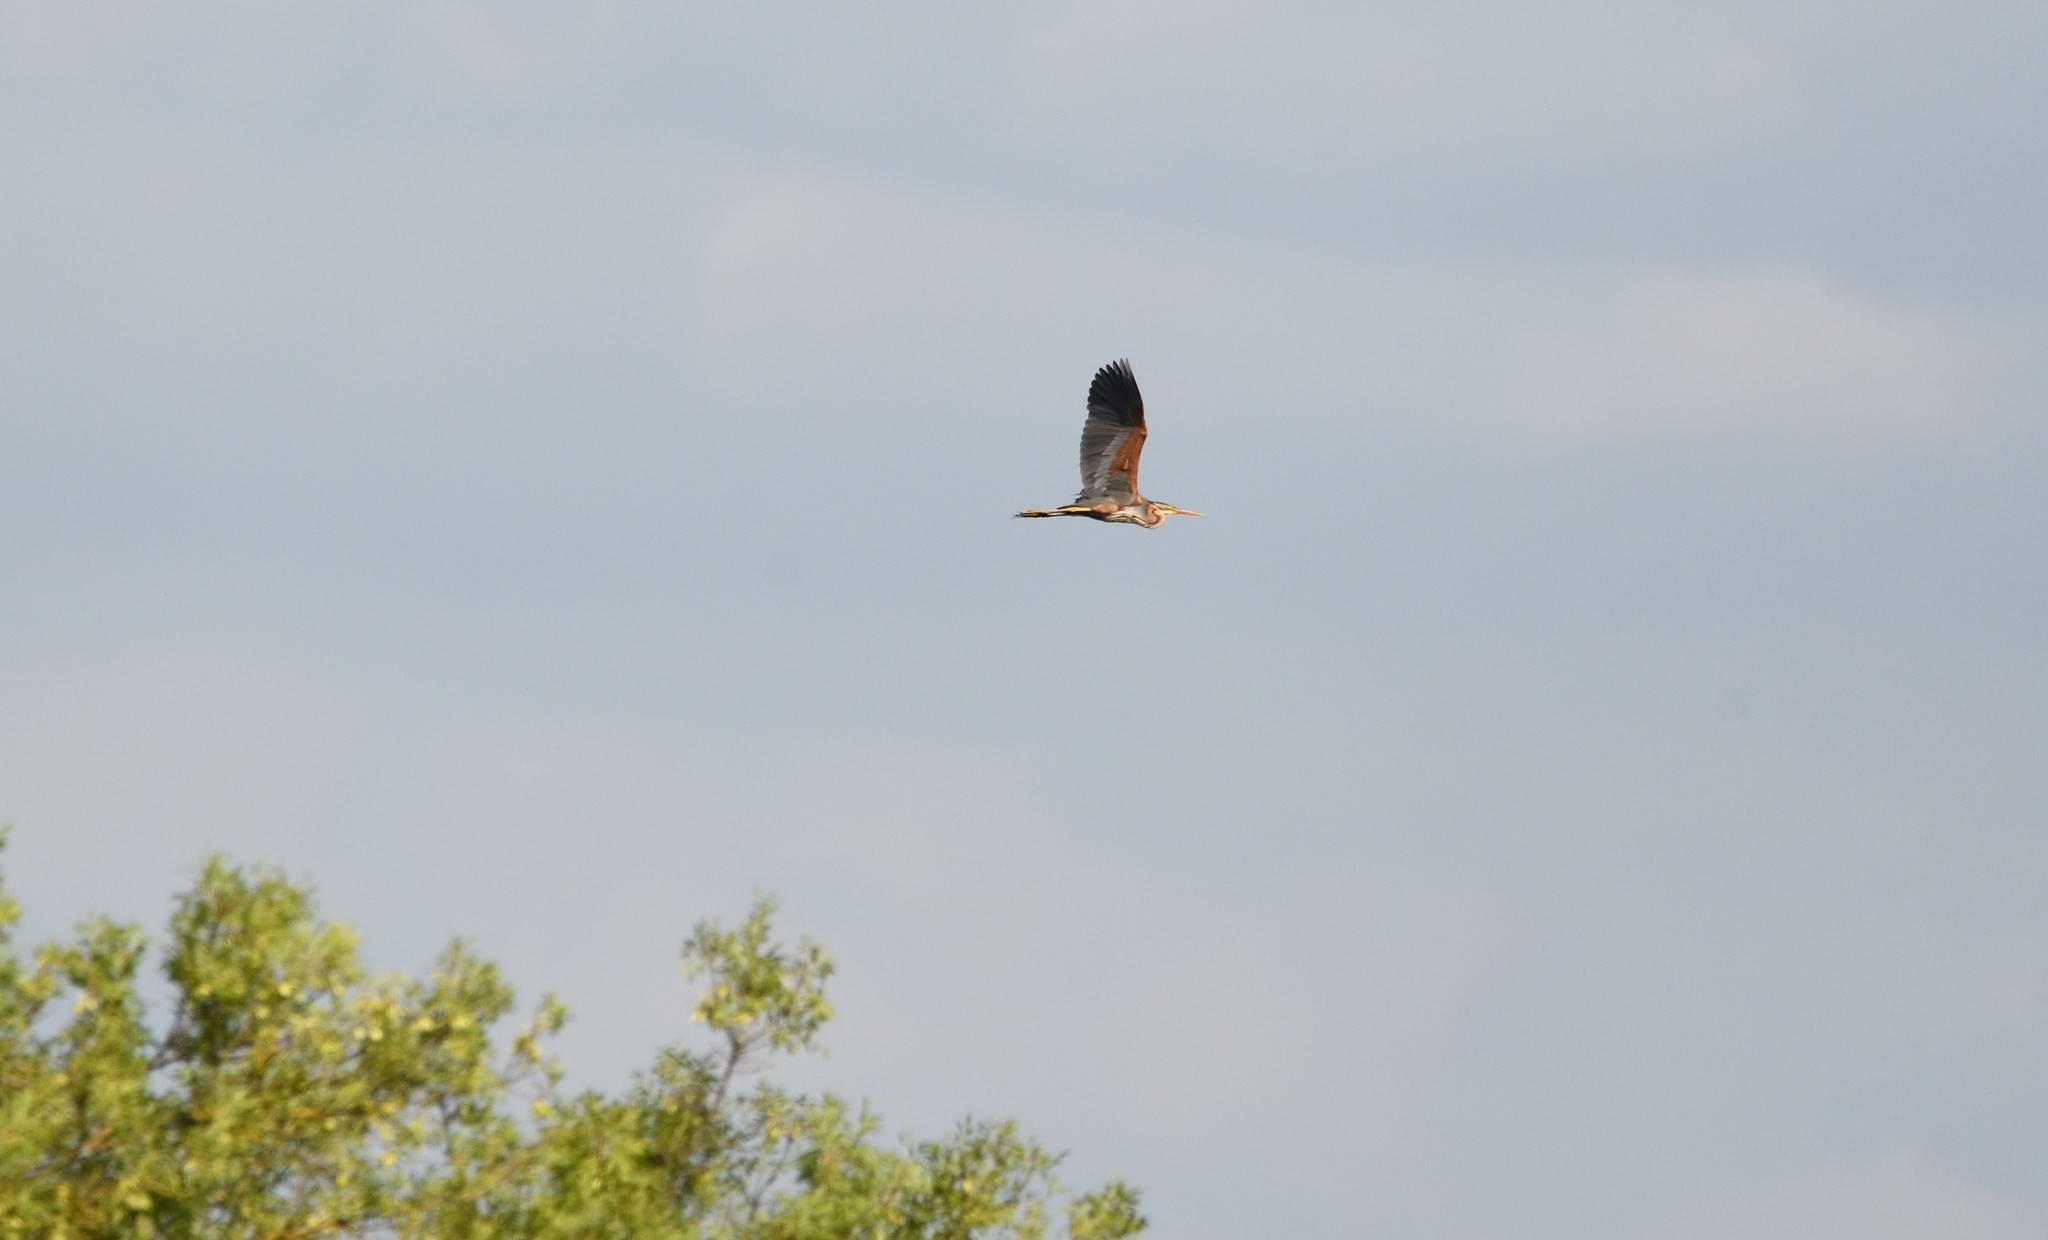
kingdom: Animalia
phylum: Chordata
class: Aves
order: Pelecaniformes
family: Ardeidae
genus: Ardea
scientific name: Ardea purpurea
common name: Purple heron
